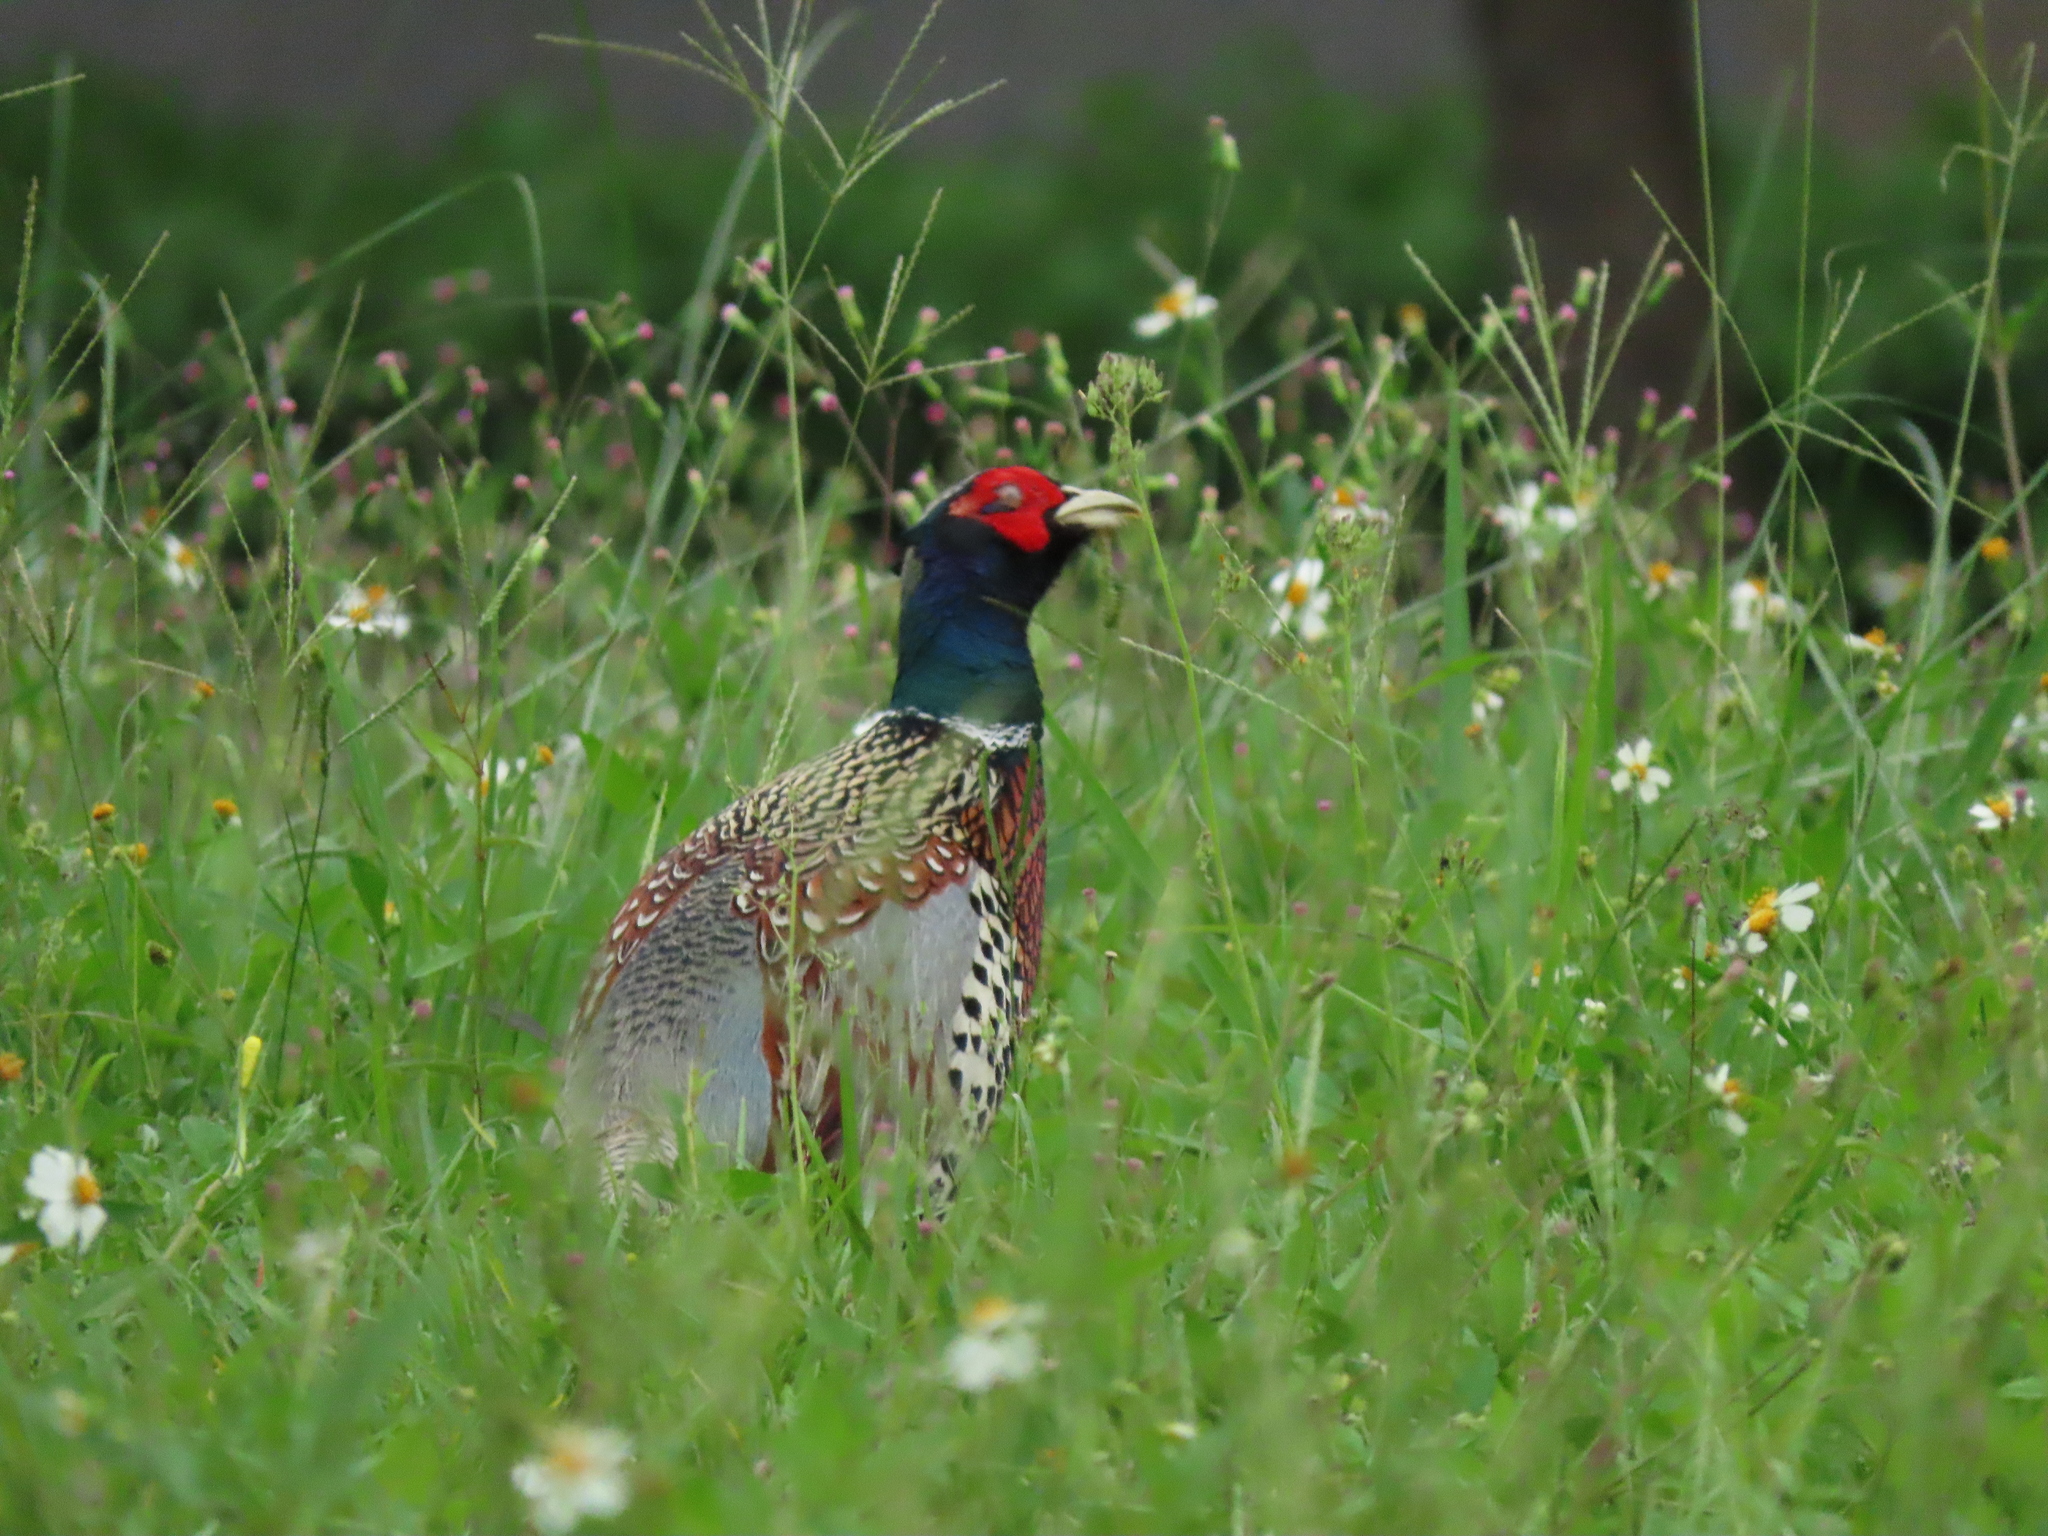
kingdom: Animalia
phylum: Chordata
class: Aves
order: Galliformes
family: Phasianidae
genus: Phasianus
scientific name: Phasianus colchicus
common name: Common pheasant
